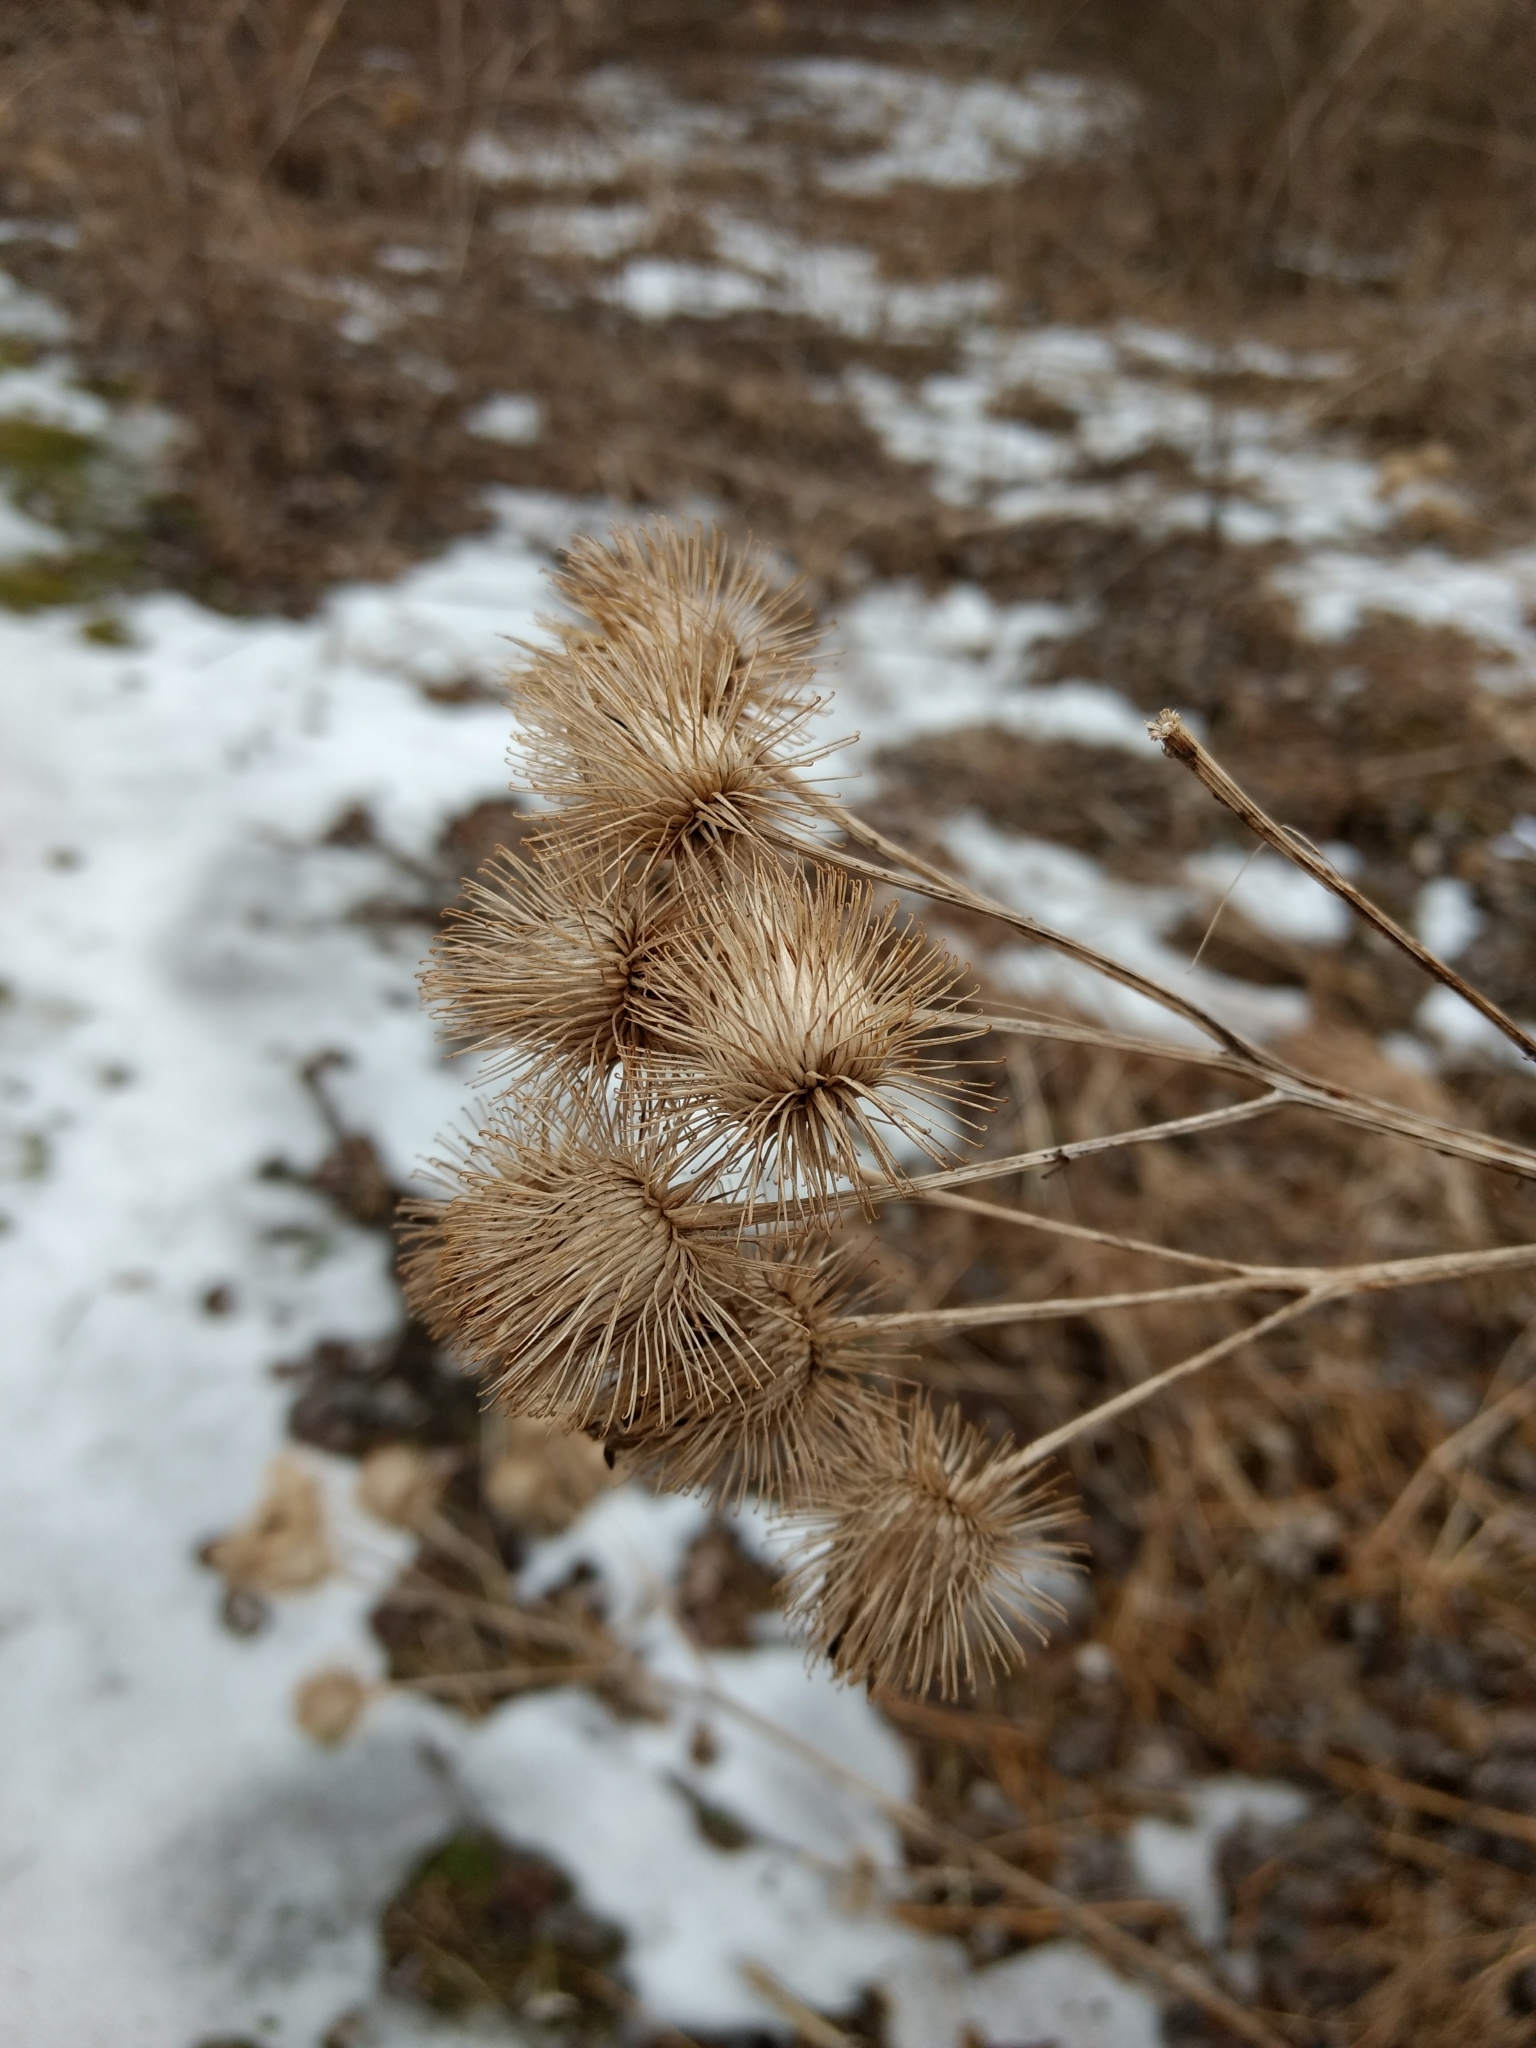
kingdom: Plantae
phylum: Tracheophyta
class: Magnoliopsida
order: Asterales
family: Asteraceae
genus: Arctium
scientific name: Arctium lappa
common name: Greater burdock
